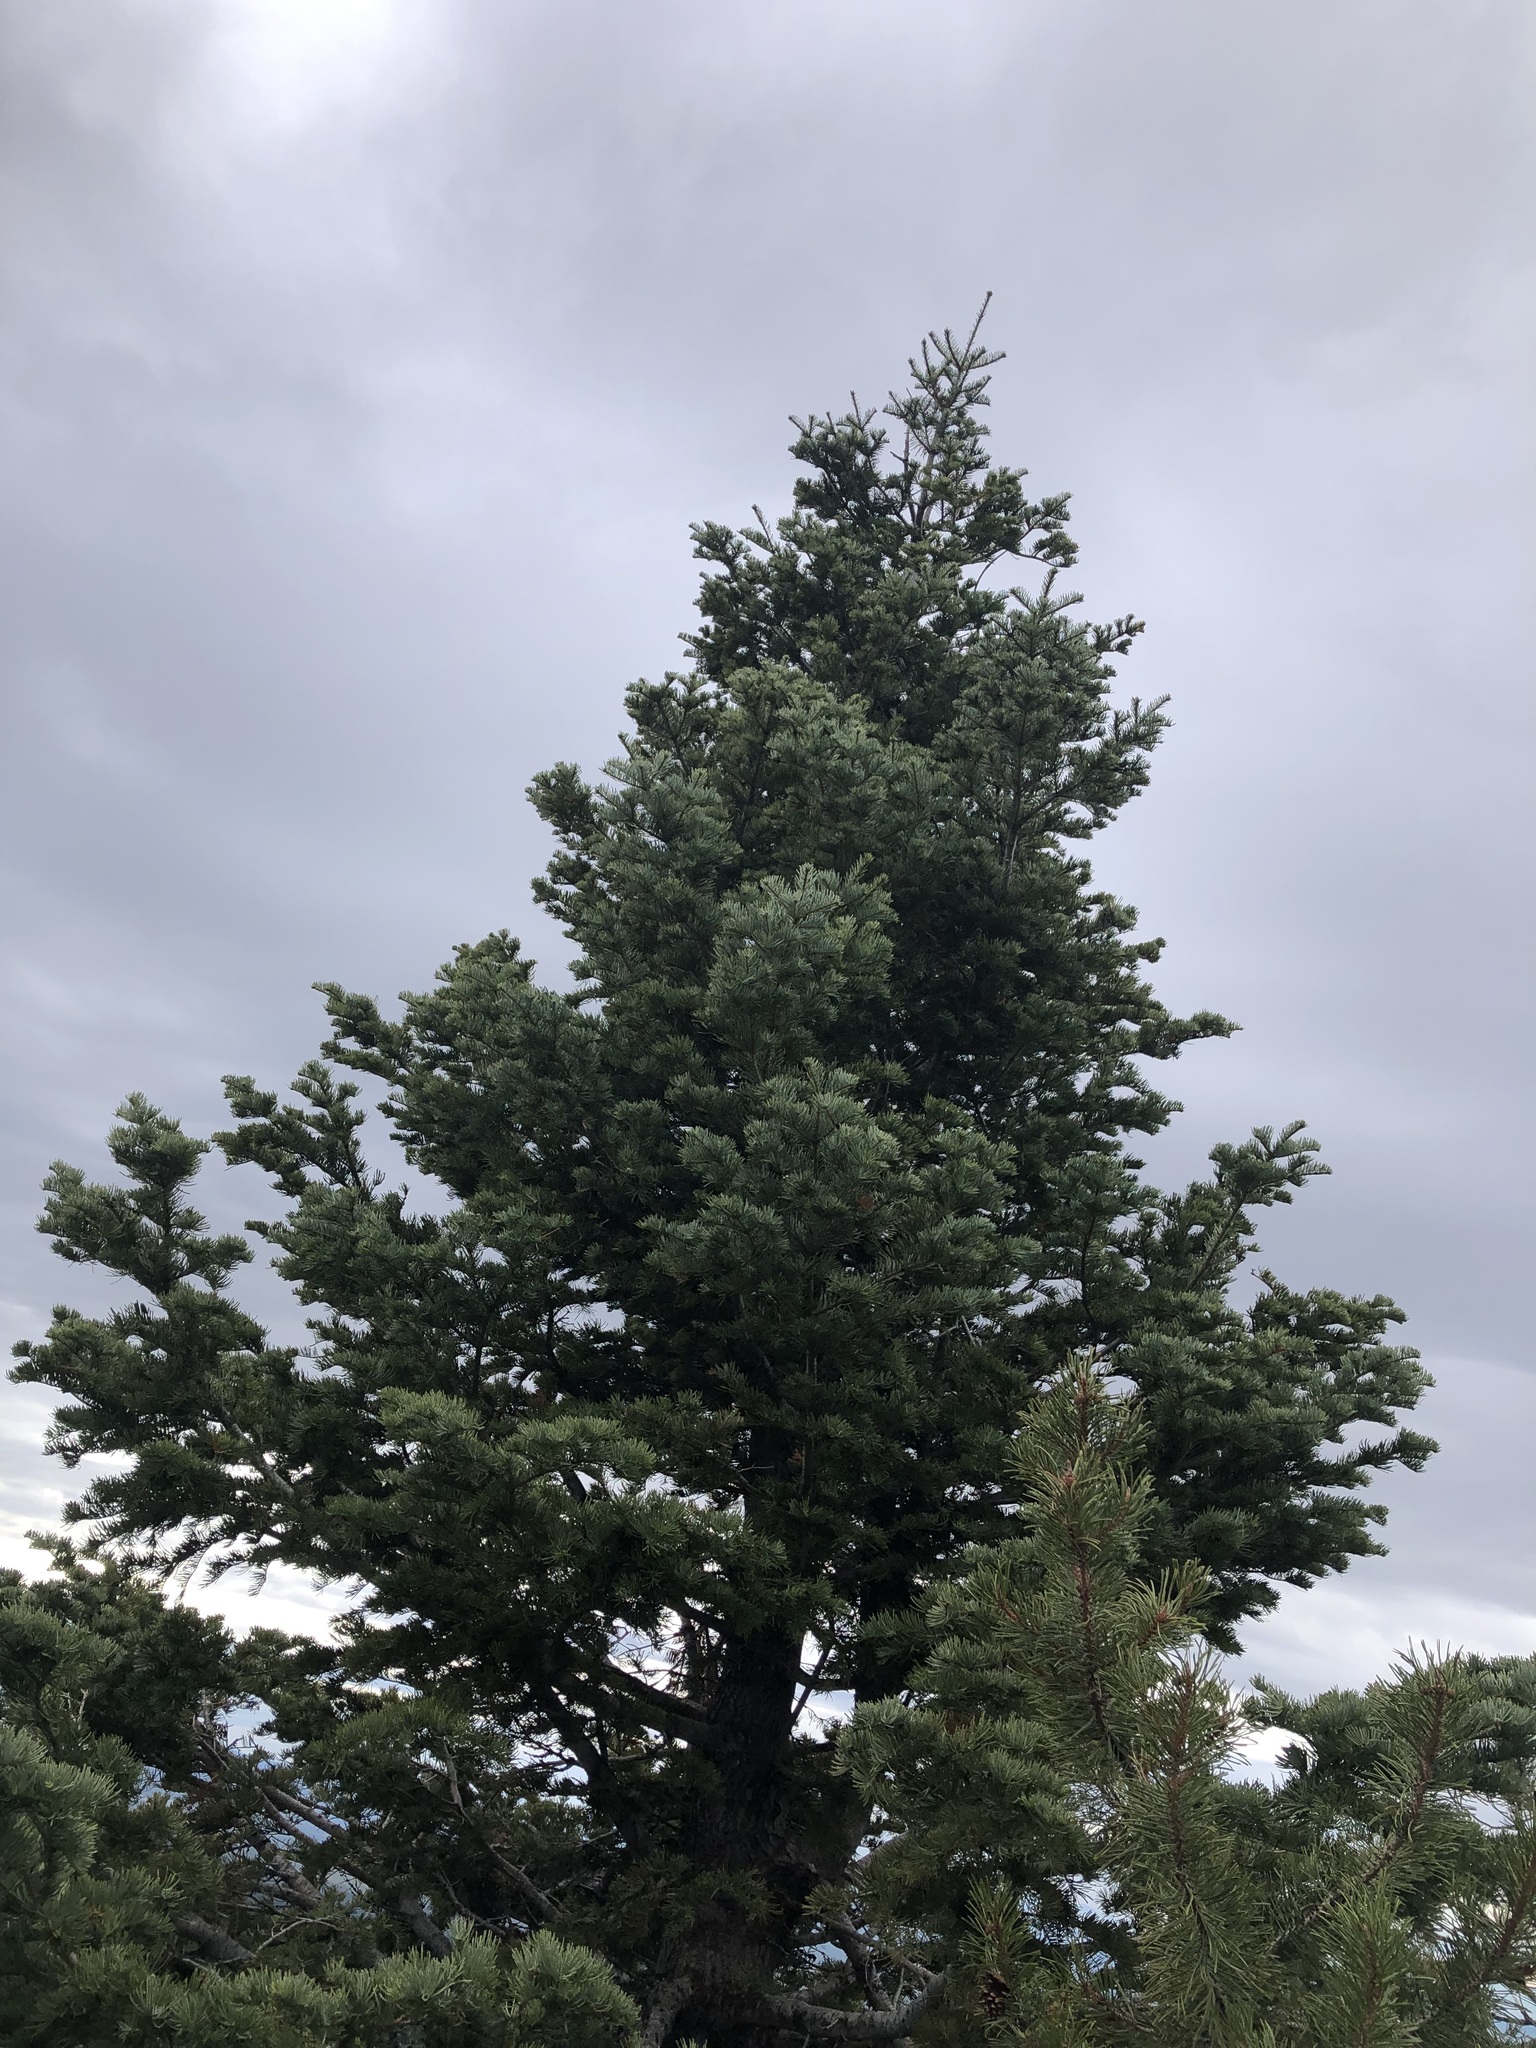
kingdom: Plantae
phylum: Tracheophyta
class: Pinopsida
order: Pinales
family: Pinaceae
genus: Abies
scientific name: Abies concolor
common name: Colorado fir
